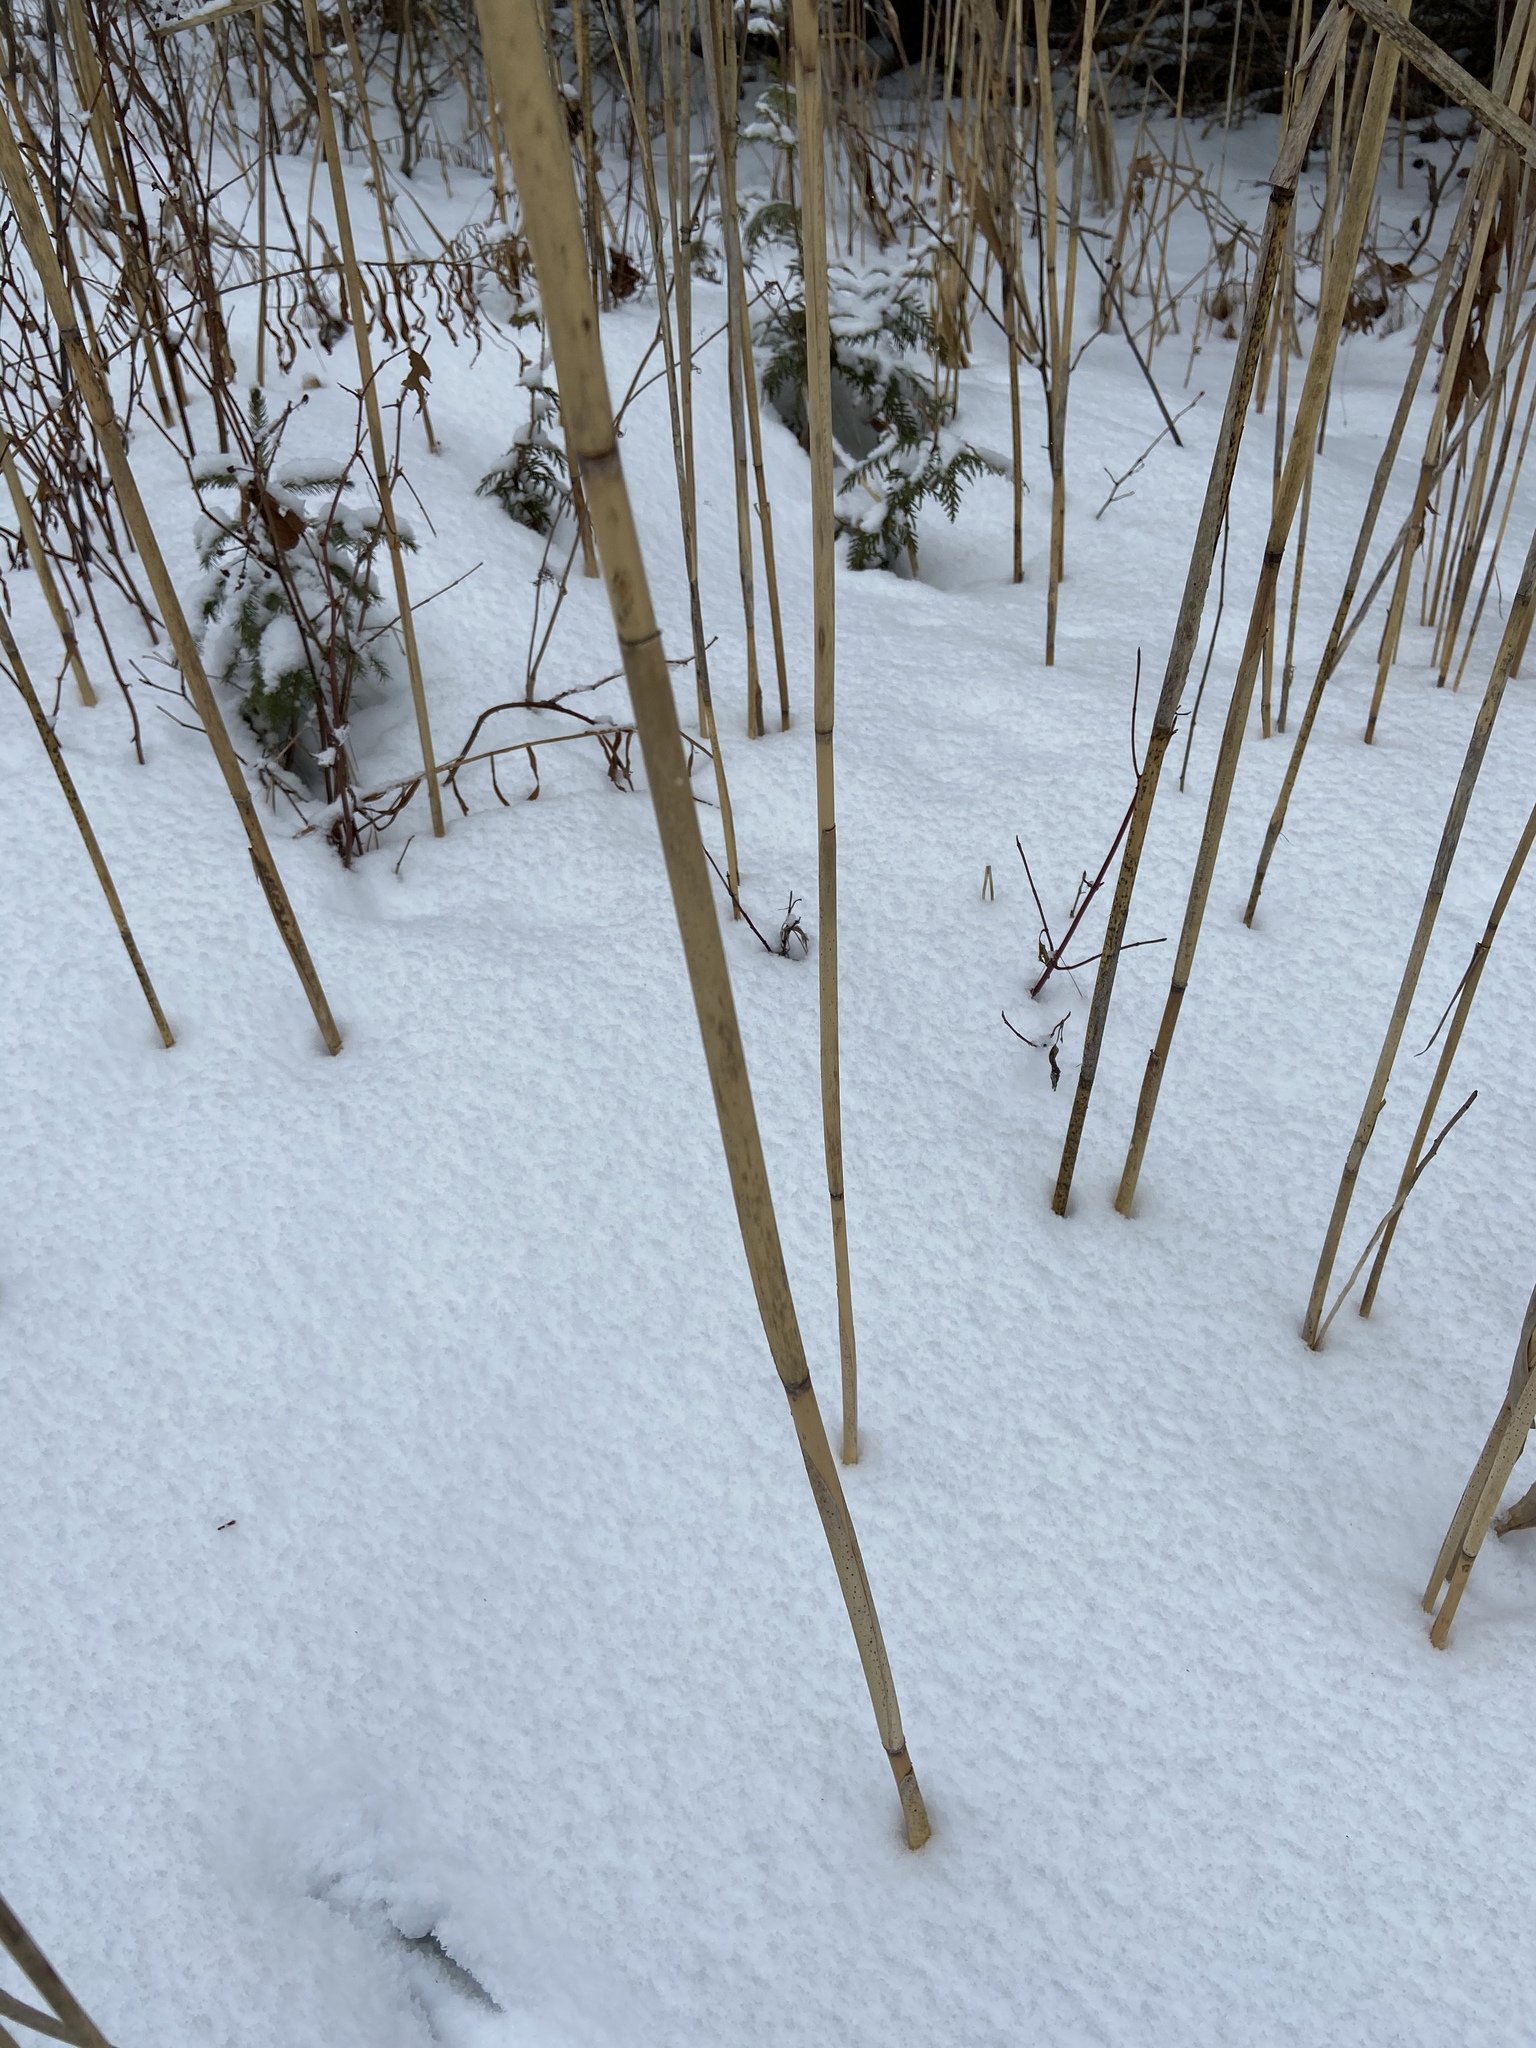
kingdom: Plantae
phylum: Tracheophyta
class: Liliopsida
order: Poales
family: Poaceae
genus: Phragmites
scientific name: Phragmites australis
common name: Common reed
